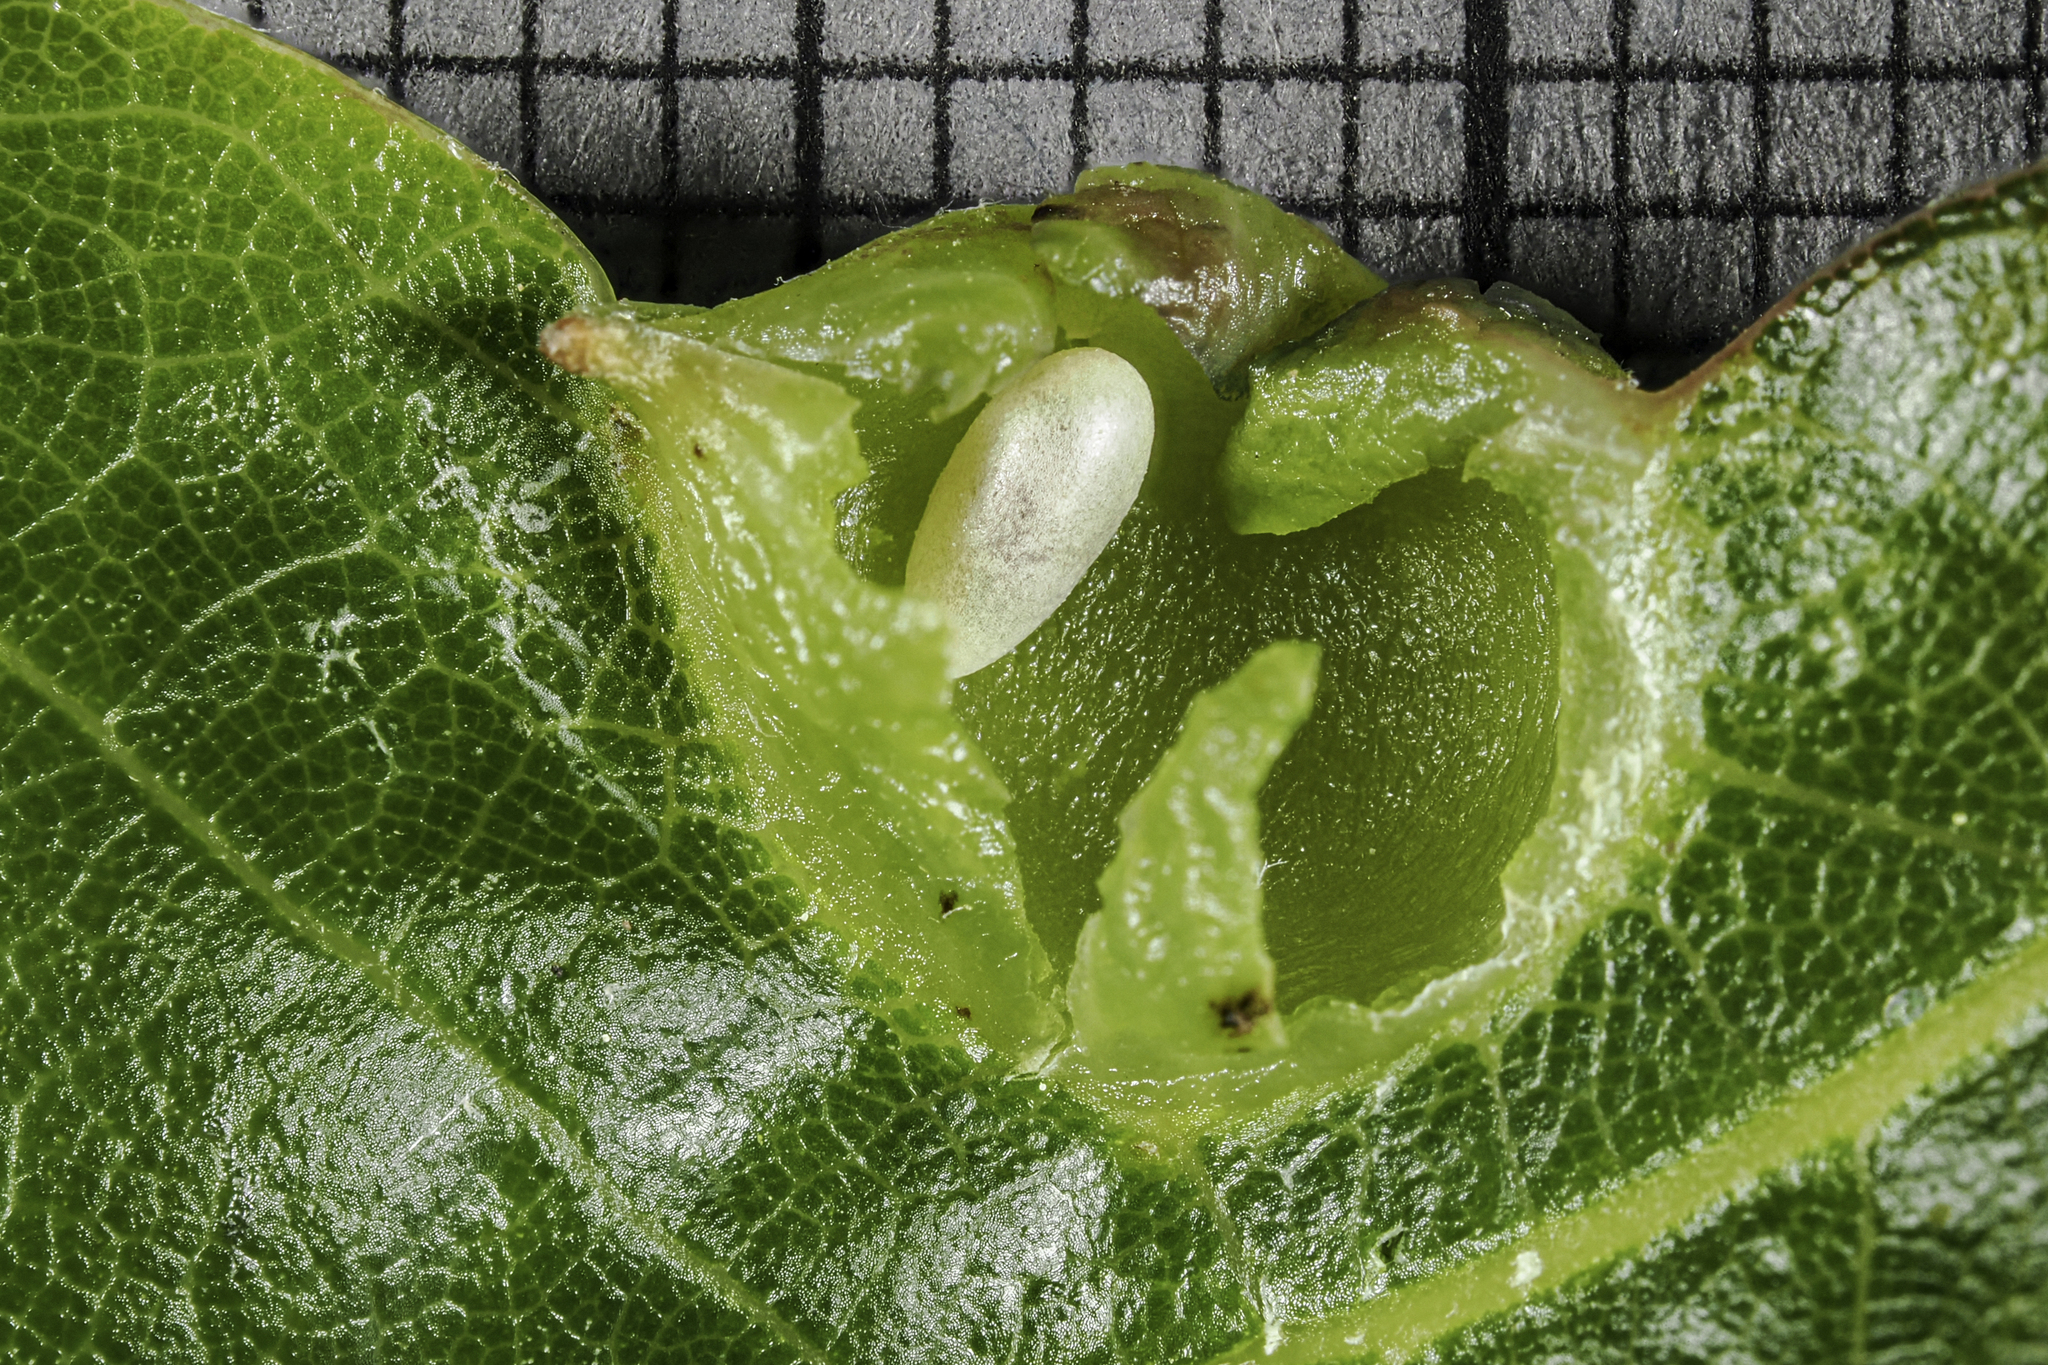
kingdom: Animalia
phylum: Arthropoda
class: Insecta
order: Hymenoptera
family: Cynipidae
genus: Dryocosmus
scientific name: Dryocosmus
